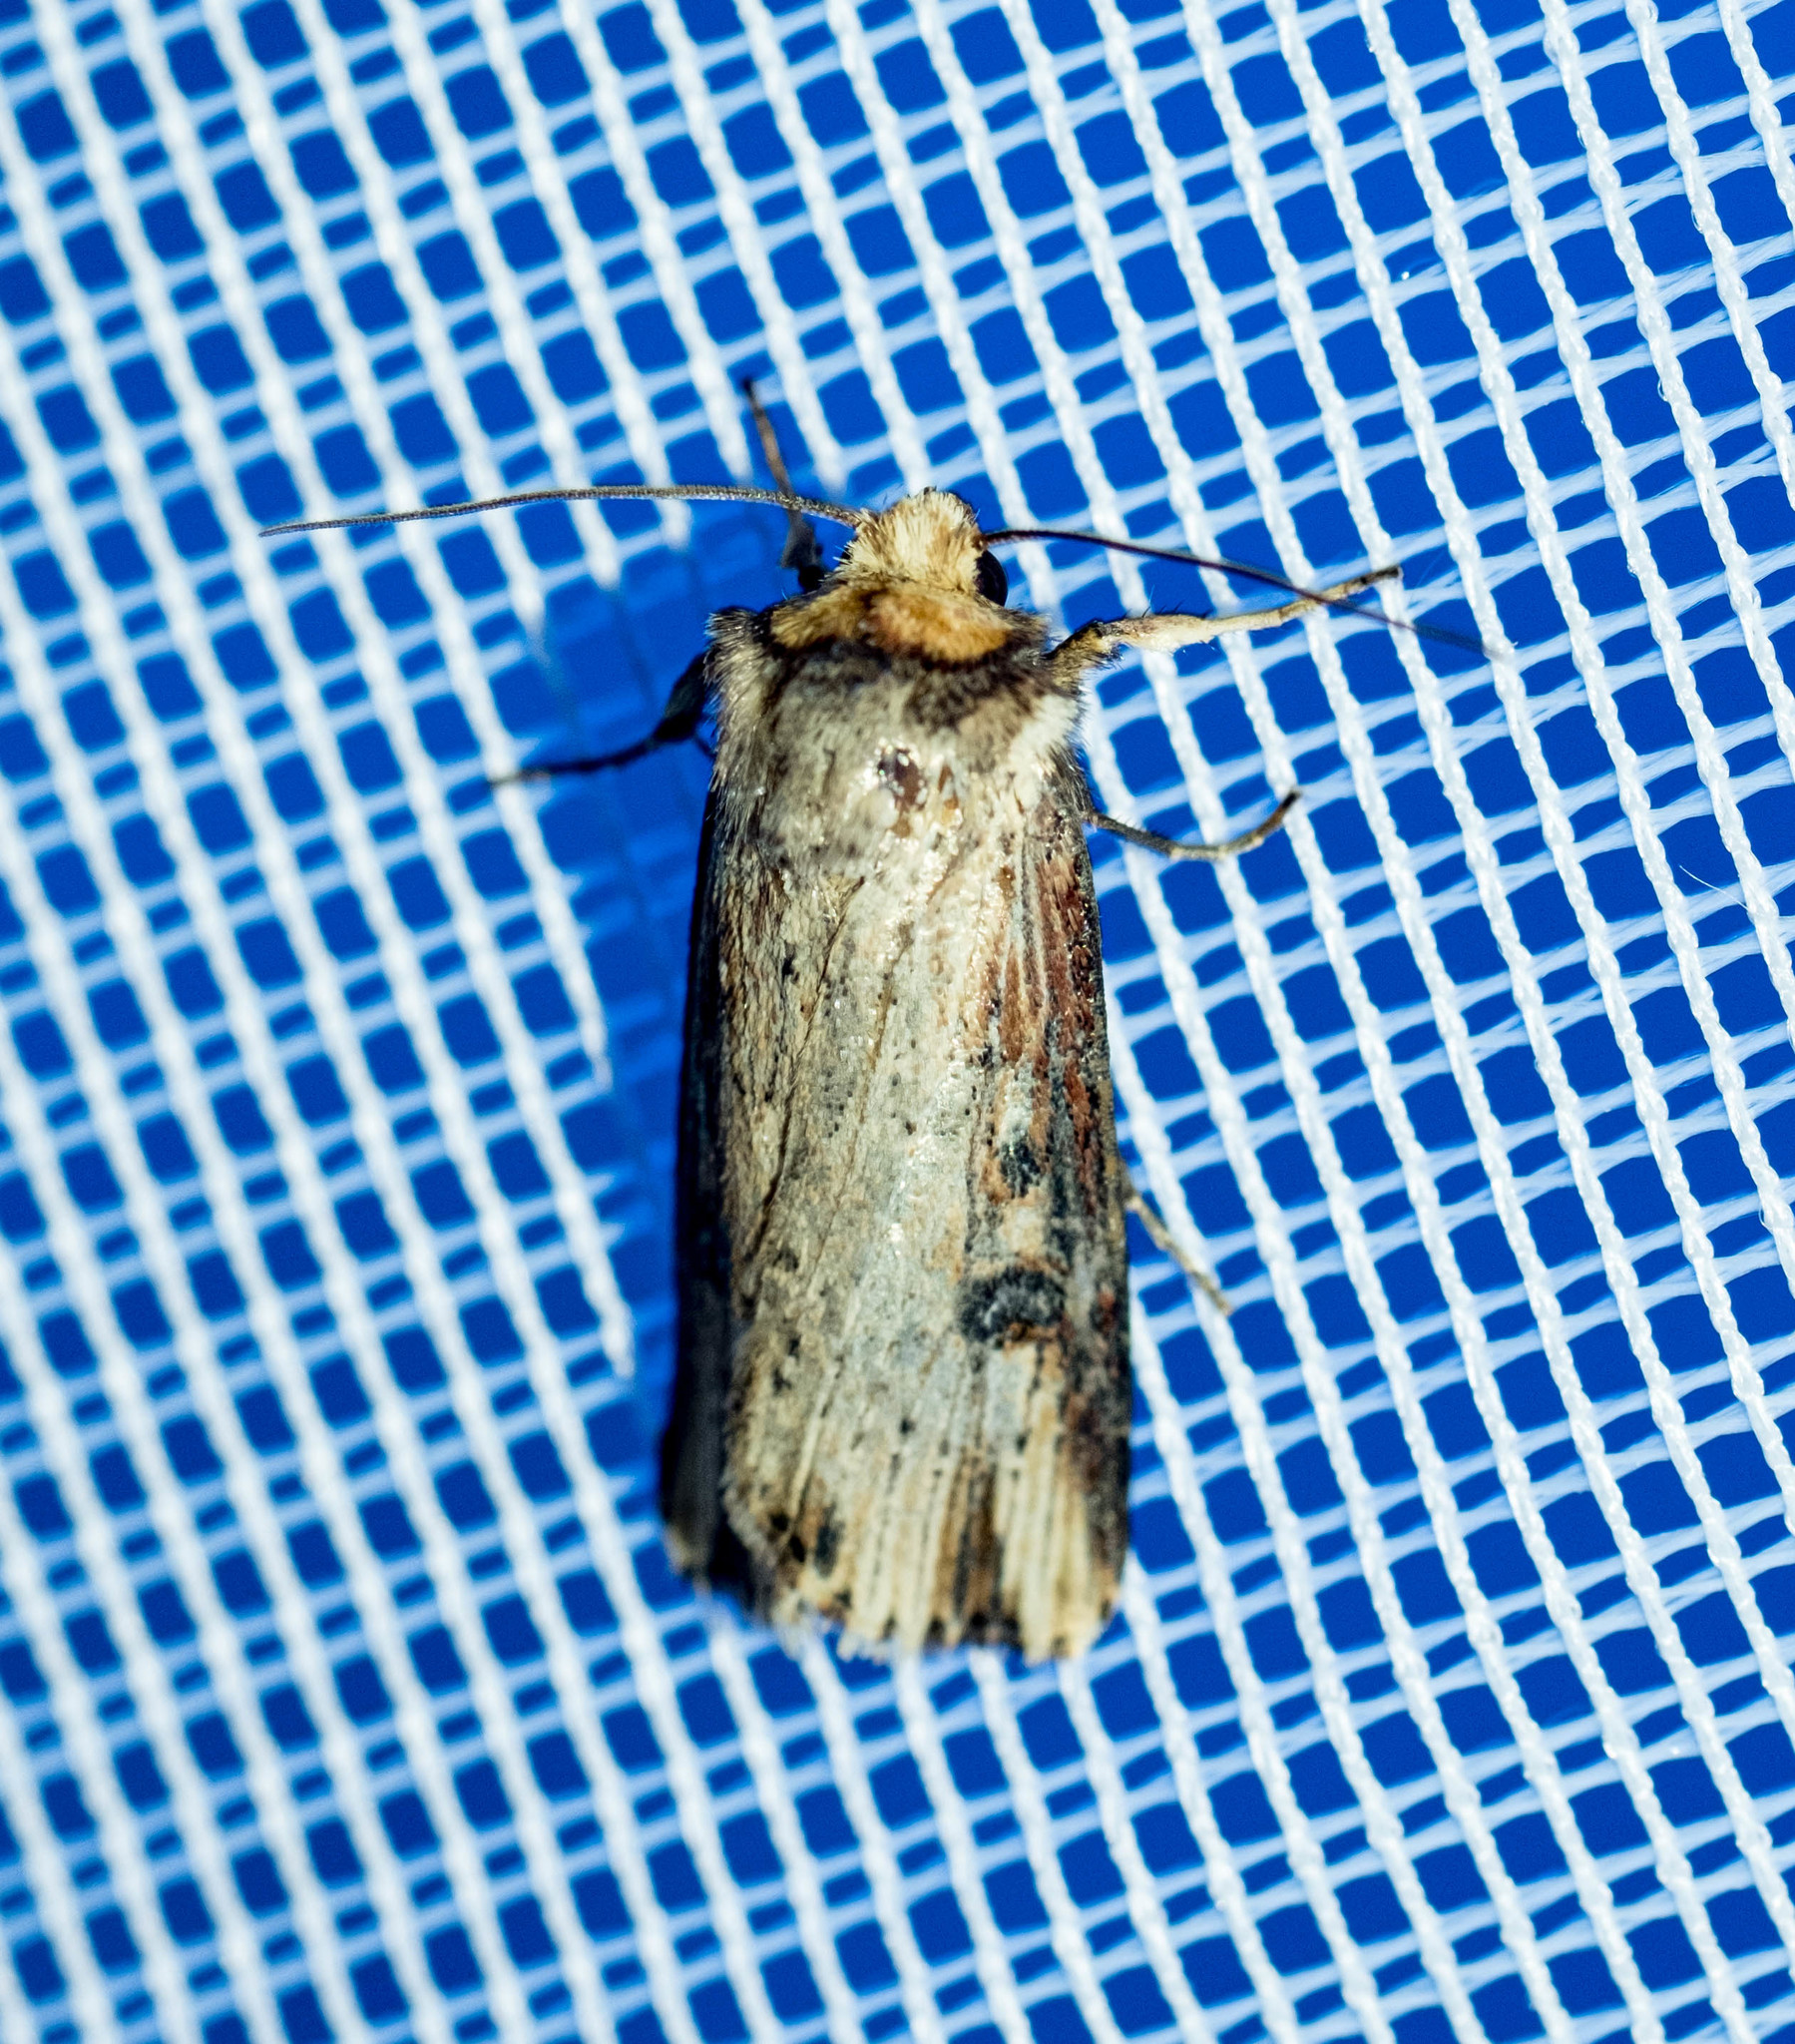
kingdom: Animalia
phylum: Arthropoda
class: Insecta
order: Lepidoptera
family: Noctuidae
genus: Axylia
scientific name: Axylia putris
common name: Flame
